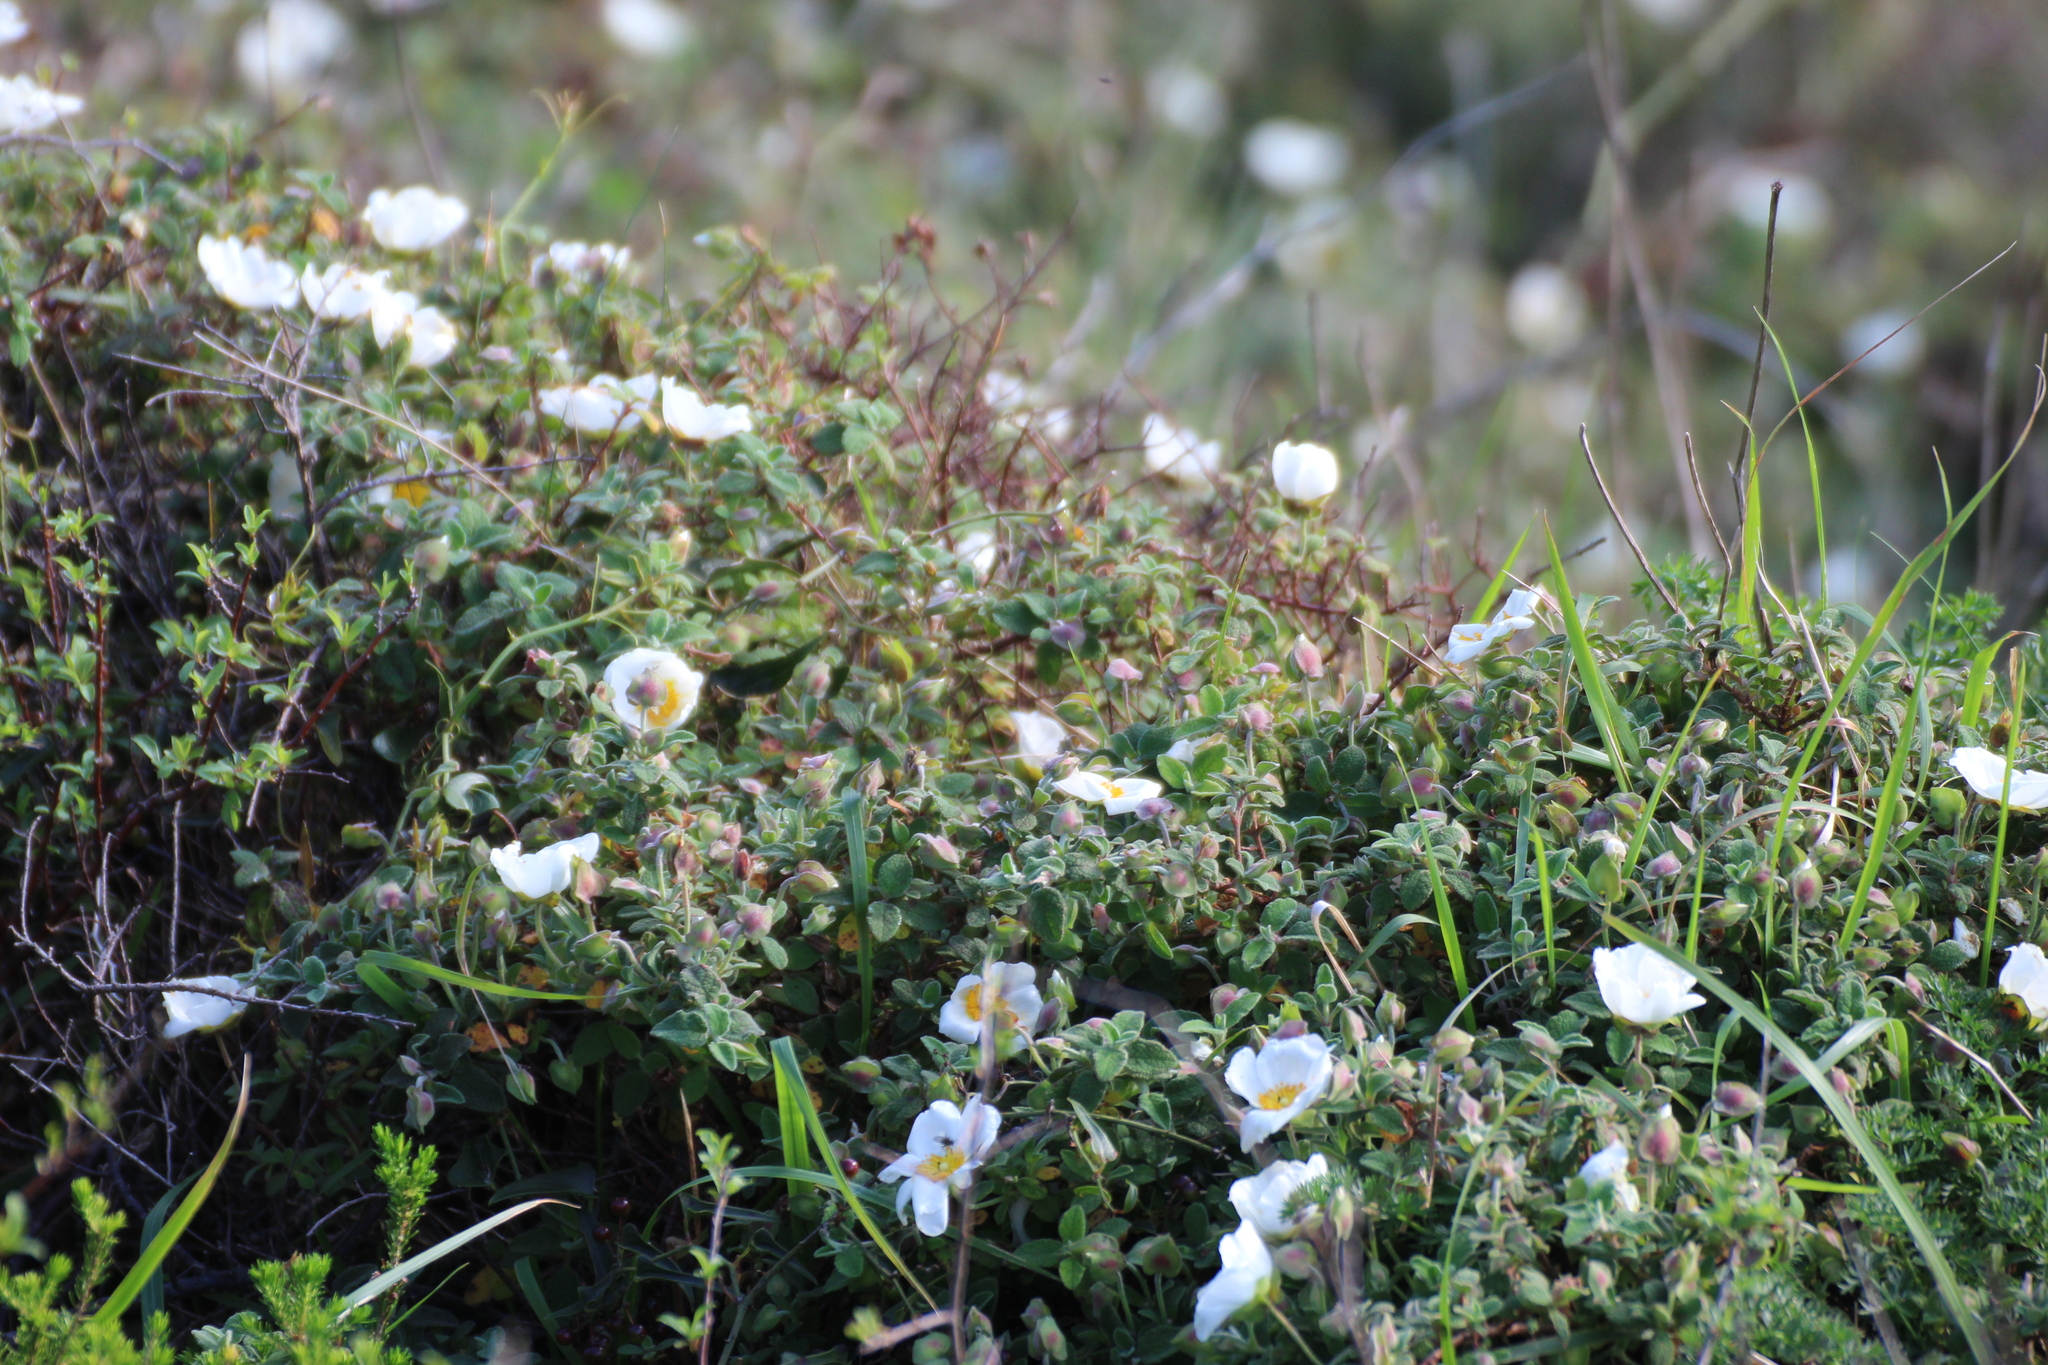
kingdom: Plantae
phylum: Tracheophyta
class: Magnoliopsida
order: Malvales
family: Cistaceae
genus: Cistus
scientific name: Cistus salviifolius
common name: Salvia cistus
